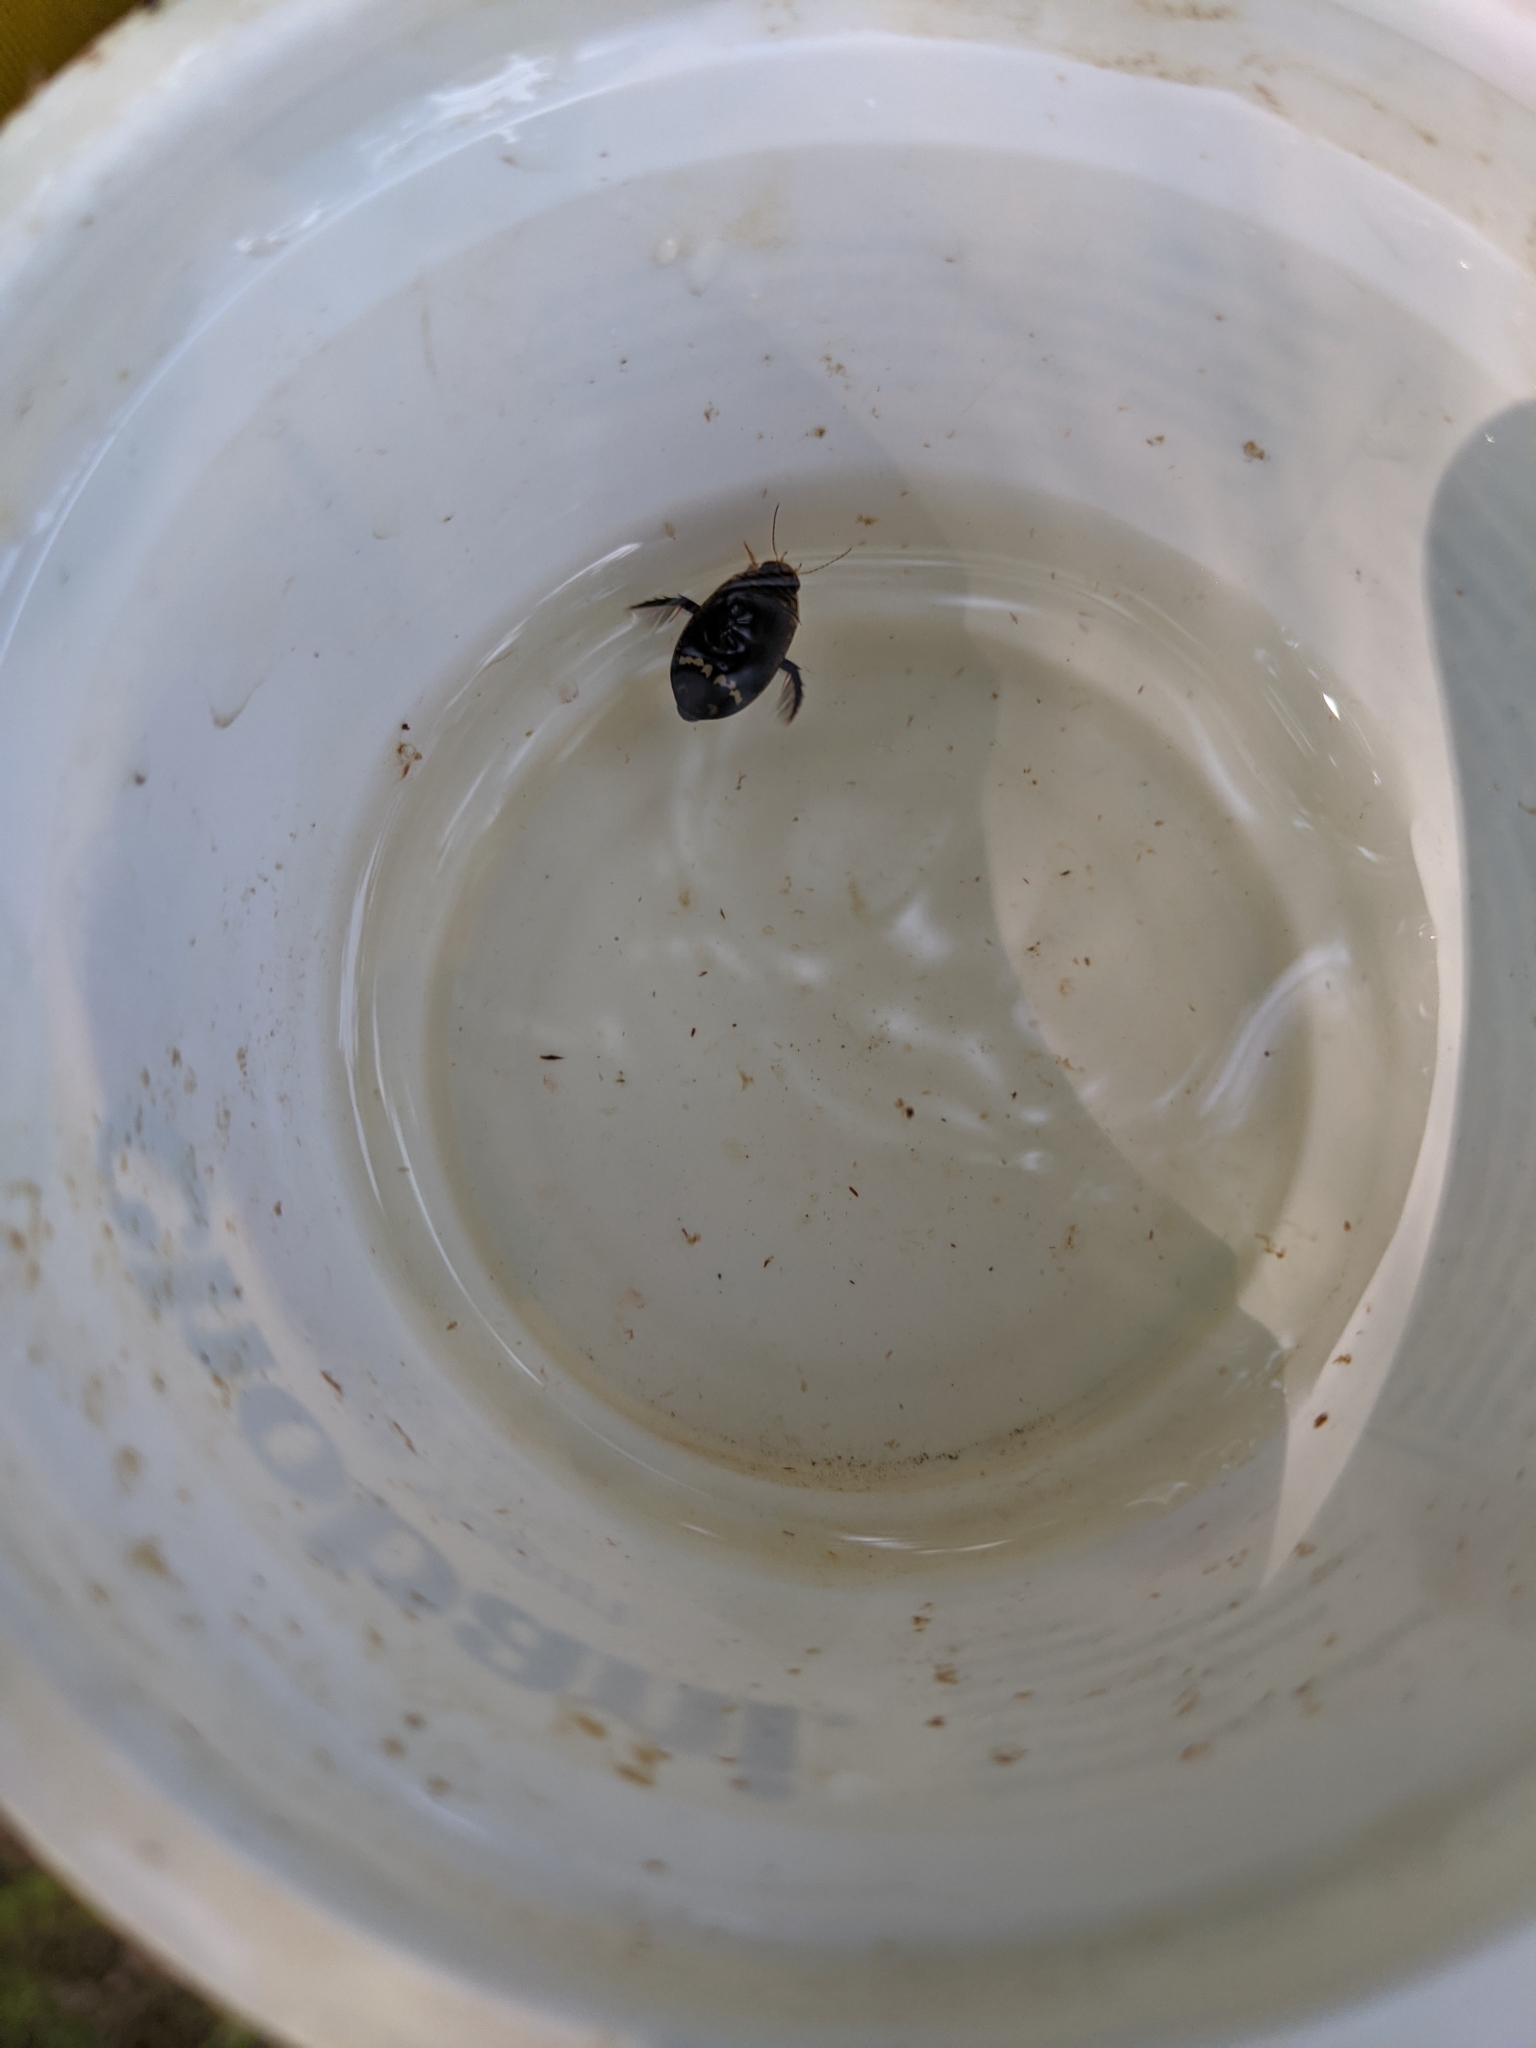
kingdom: Animalia
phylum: Arthropoda
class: Insecta
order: Coleoptera
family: Dytiscidae
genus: Acilius
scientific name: Acilius mediatus
